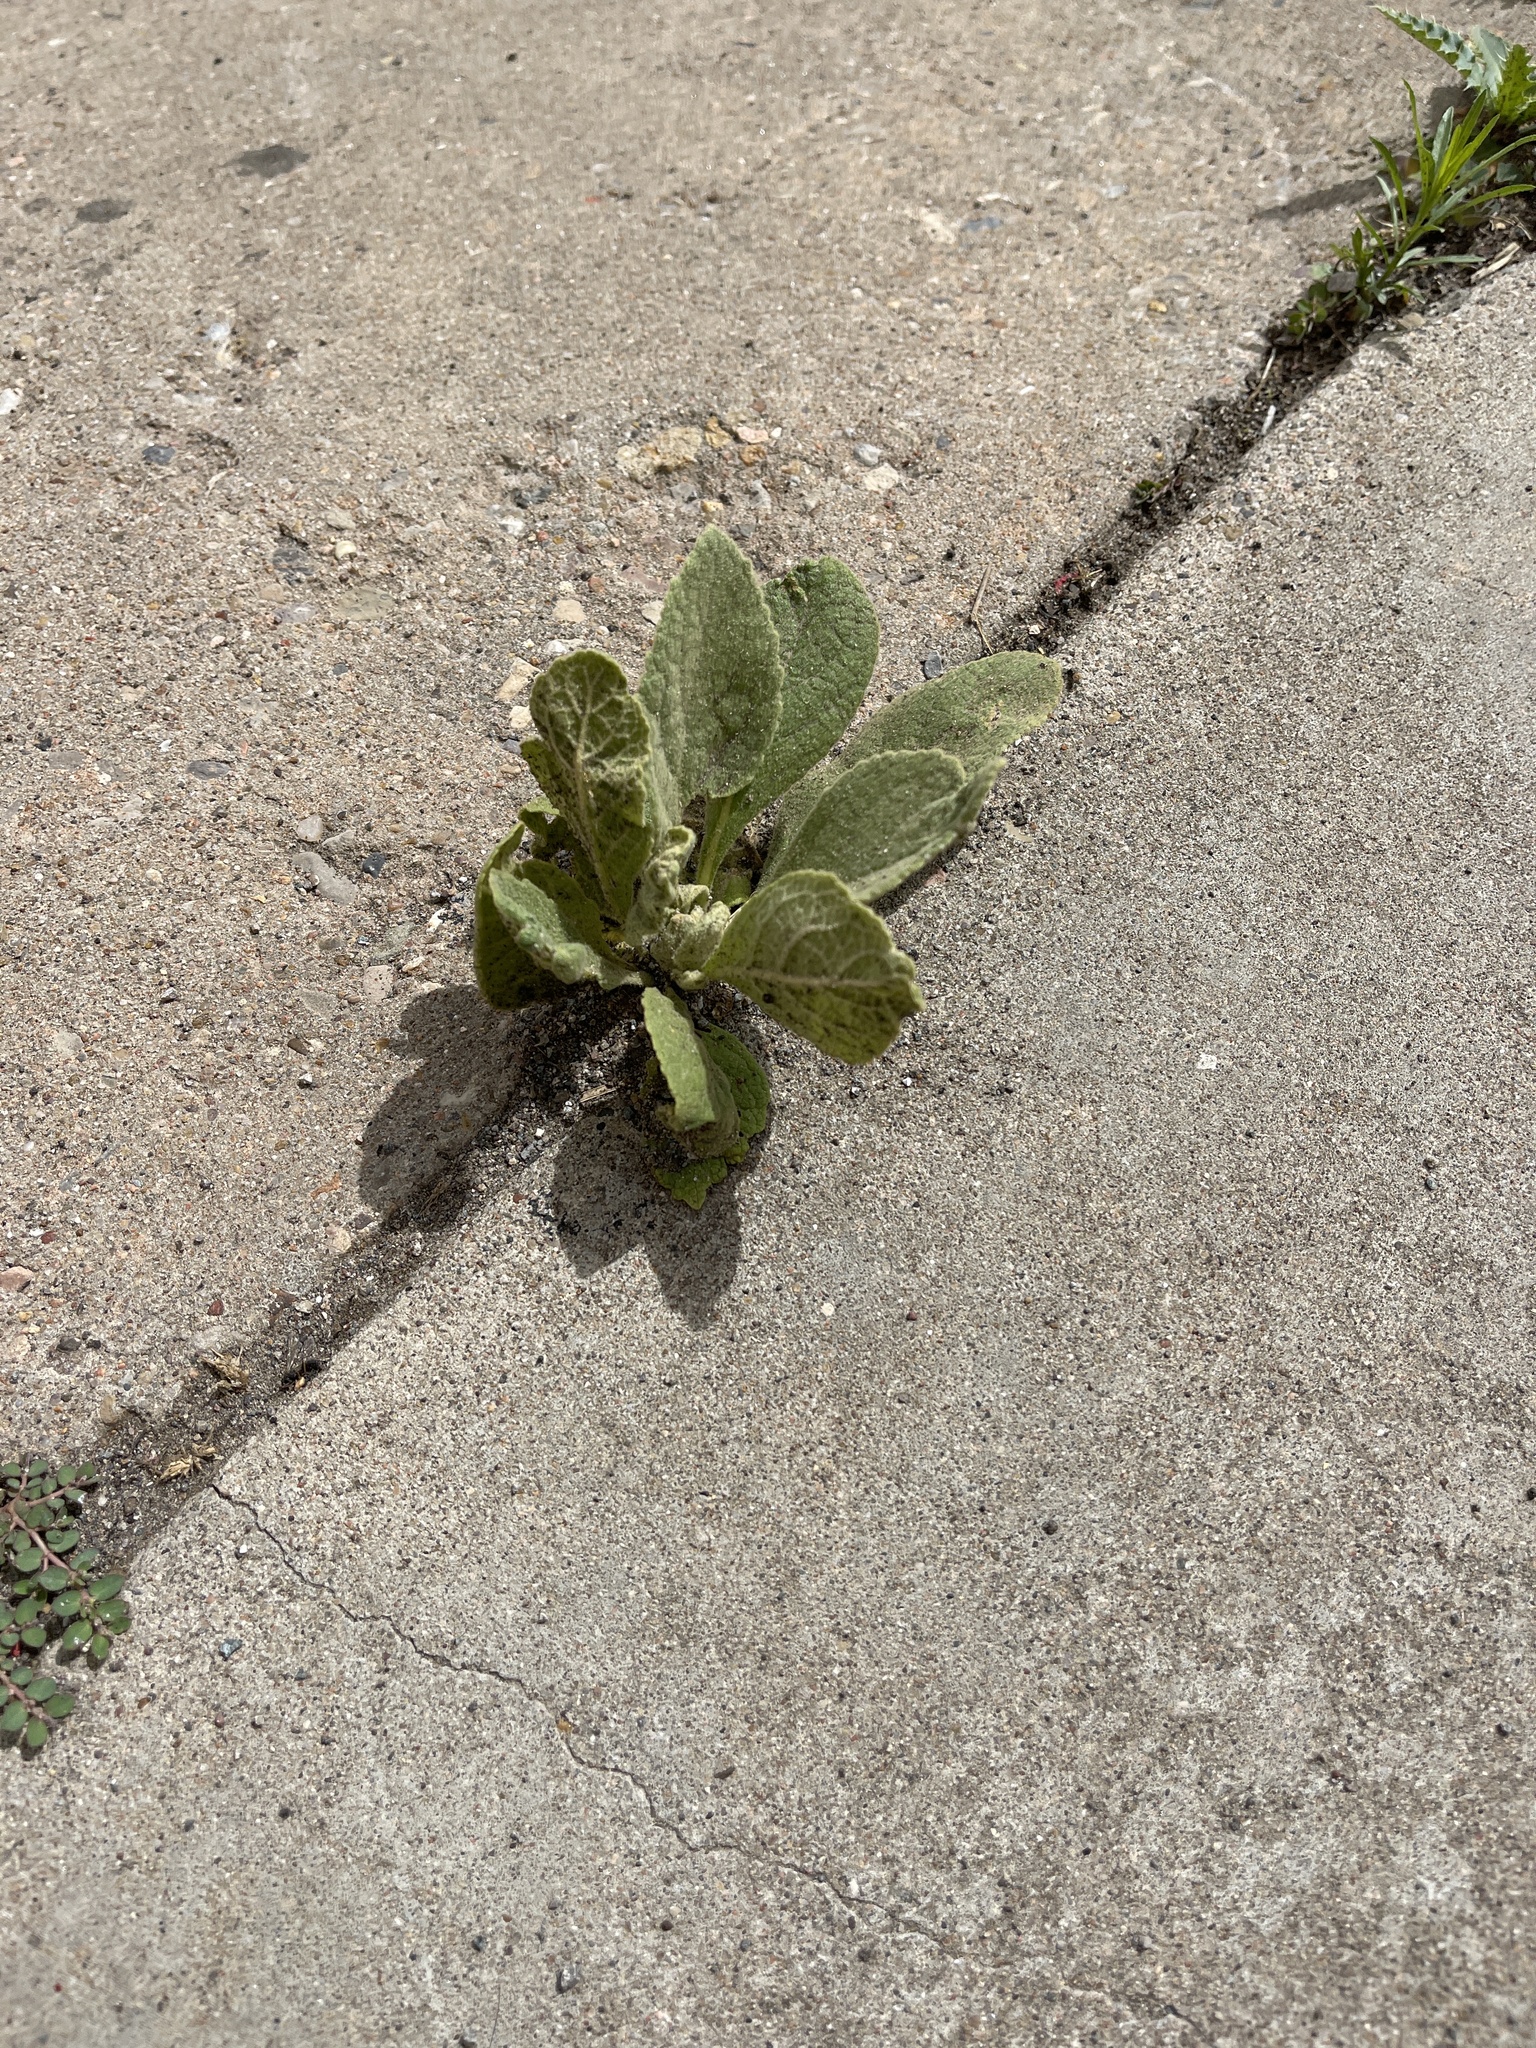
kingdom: Plantae
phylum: Tracheophyta
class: Magnoliopsida
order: Lamiales
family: Scrophulariaceae
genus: Verbascum
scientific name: Verbascum thapsus
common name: Common mullein
